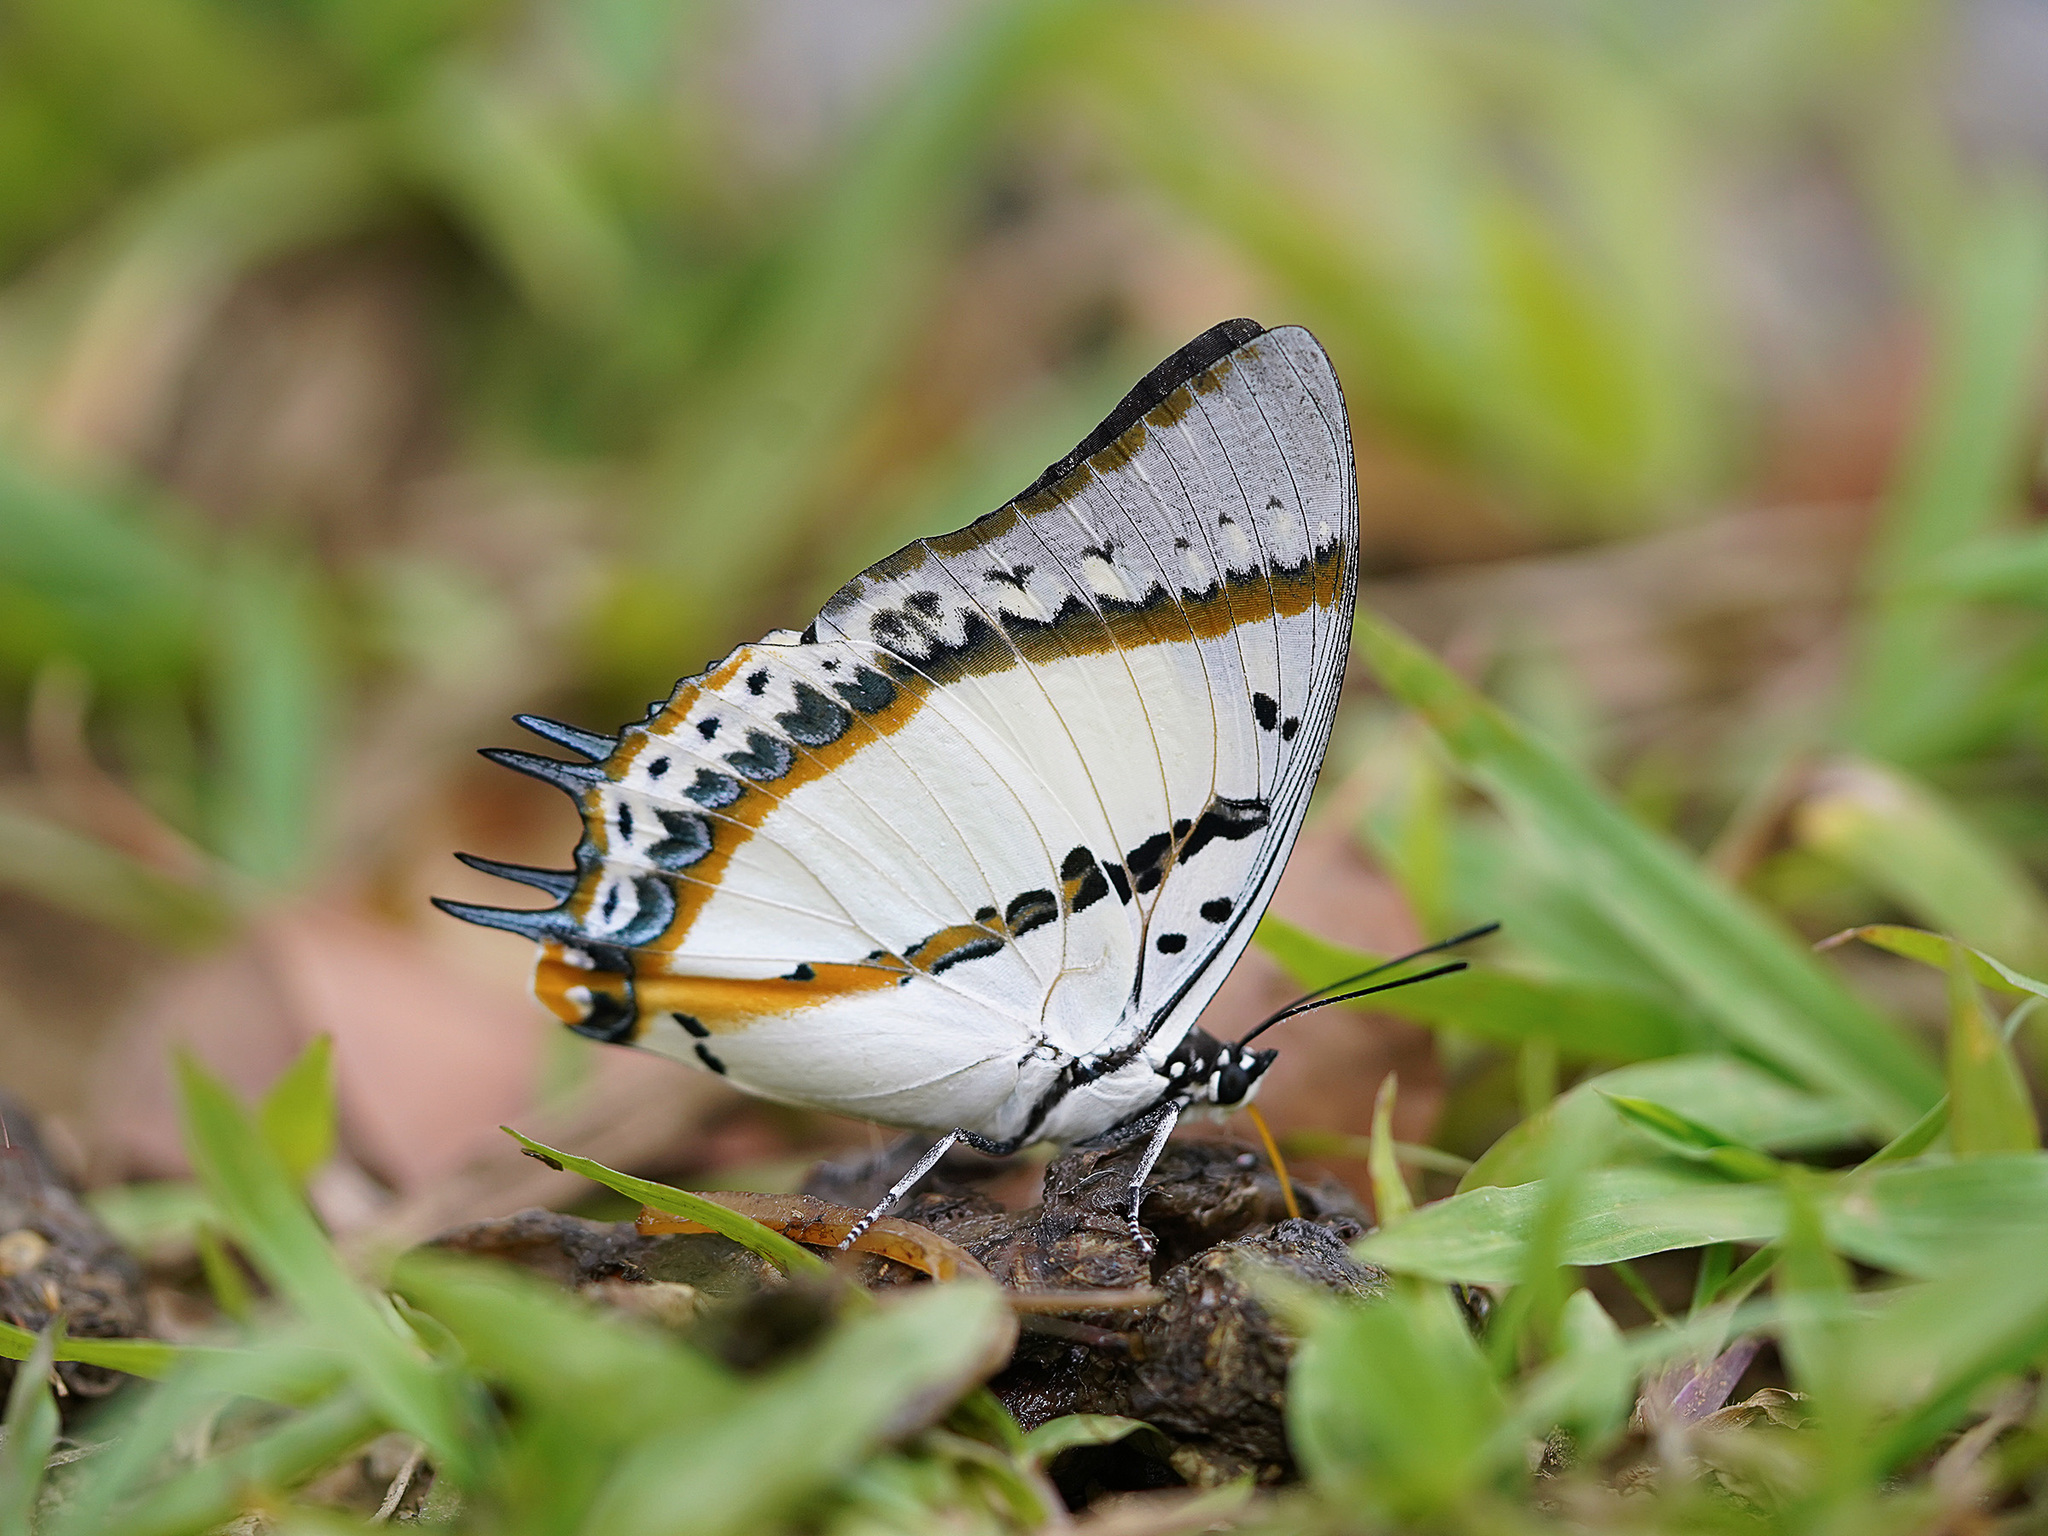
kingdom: Animalia
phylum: Arthropoda
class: Insecta
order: Lepidoptera
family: Nymphalidae
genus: Polyura
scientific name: Polyura nepenthes
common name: Shan nawab
